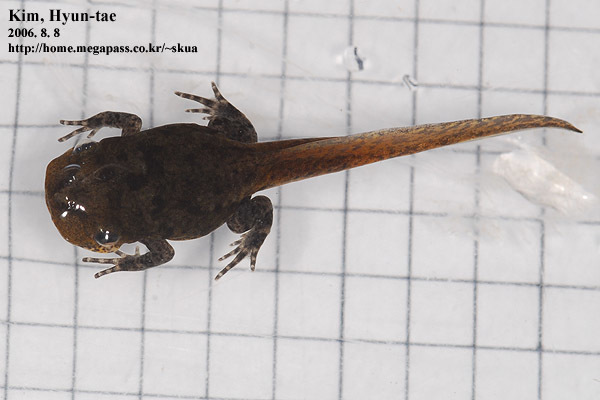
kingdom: Animalia
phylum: Chordata
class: Amphibia
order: Anura
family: Microhylidae
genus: Kaloula
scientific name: Kaloula borealis
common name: Boreal digging frog
